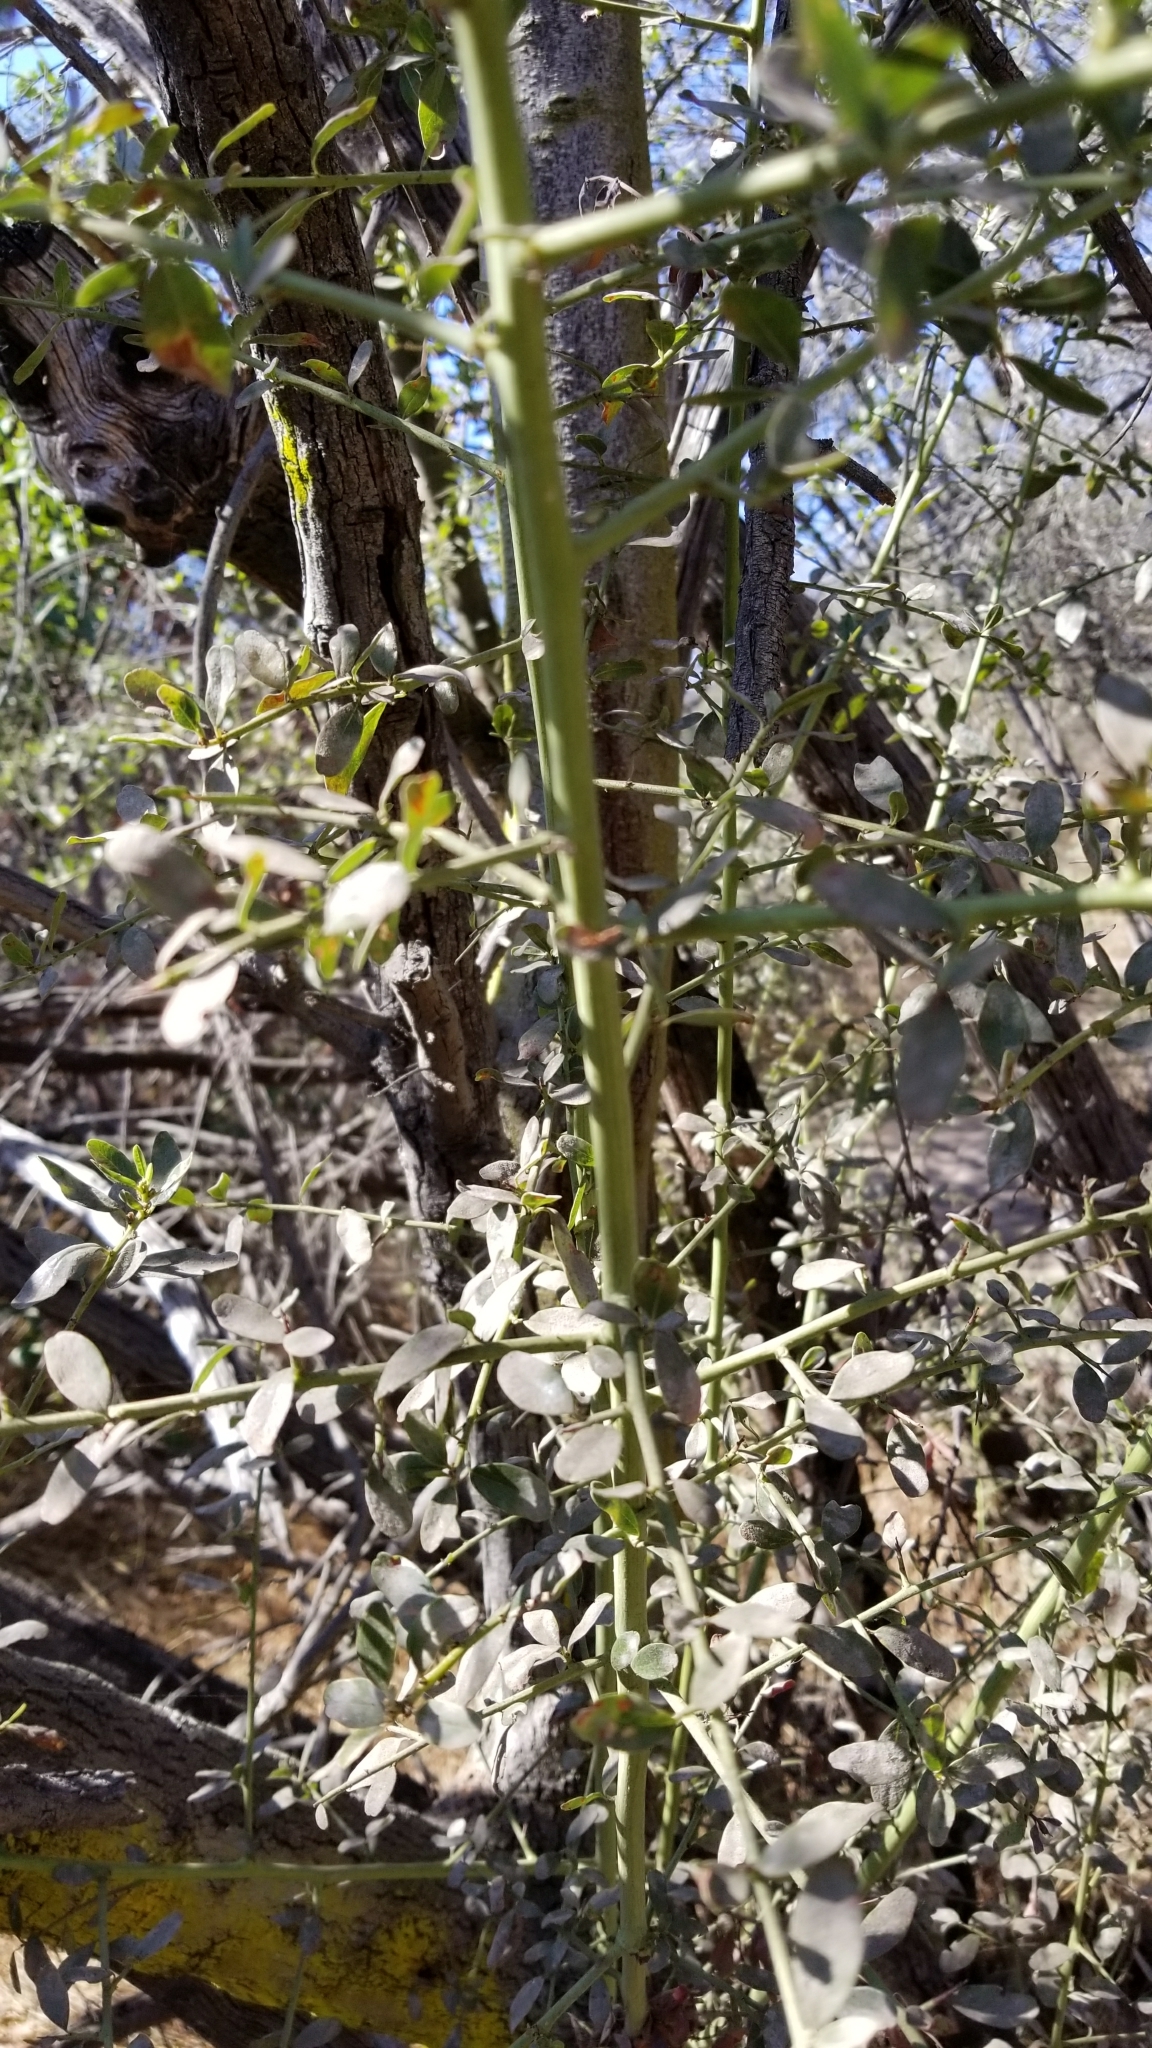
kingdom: Plantae
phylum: Tracheophyta
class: Magnoliopsida
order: Rosales
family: Rhamnaceae
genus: Ceanothus
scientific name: Ceanothus spinosus
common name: Greenbark whitethorn
